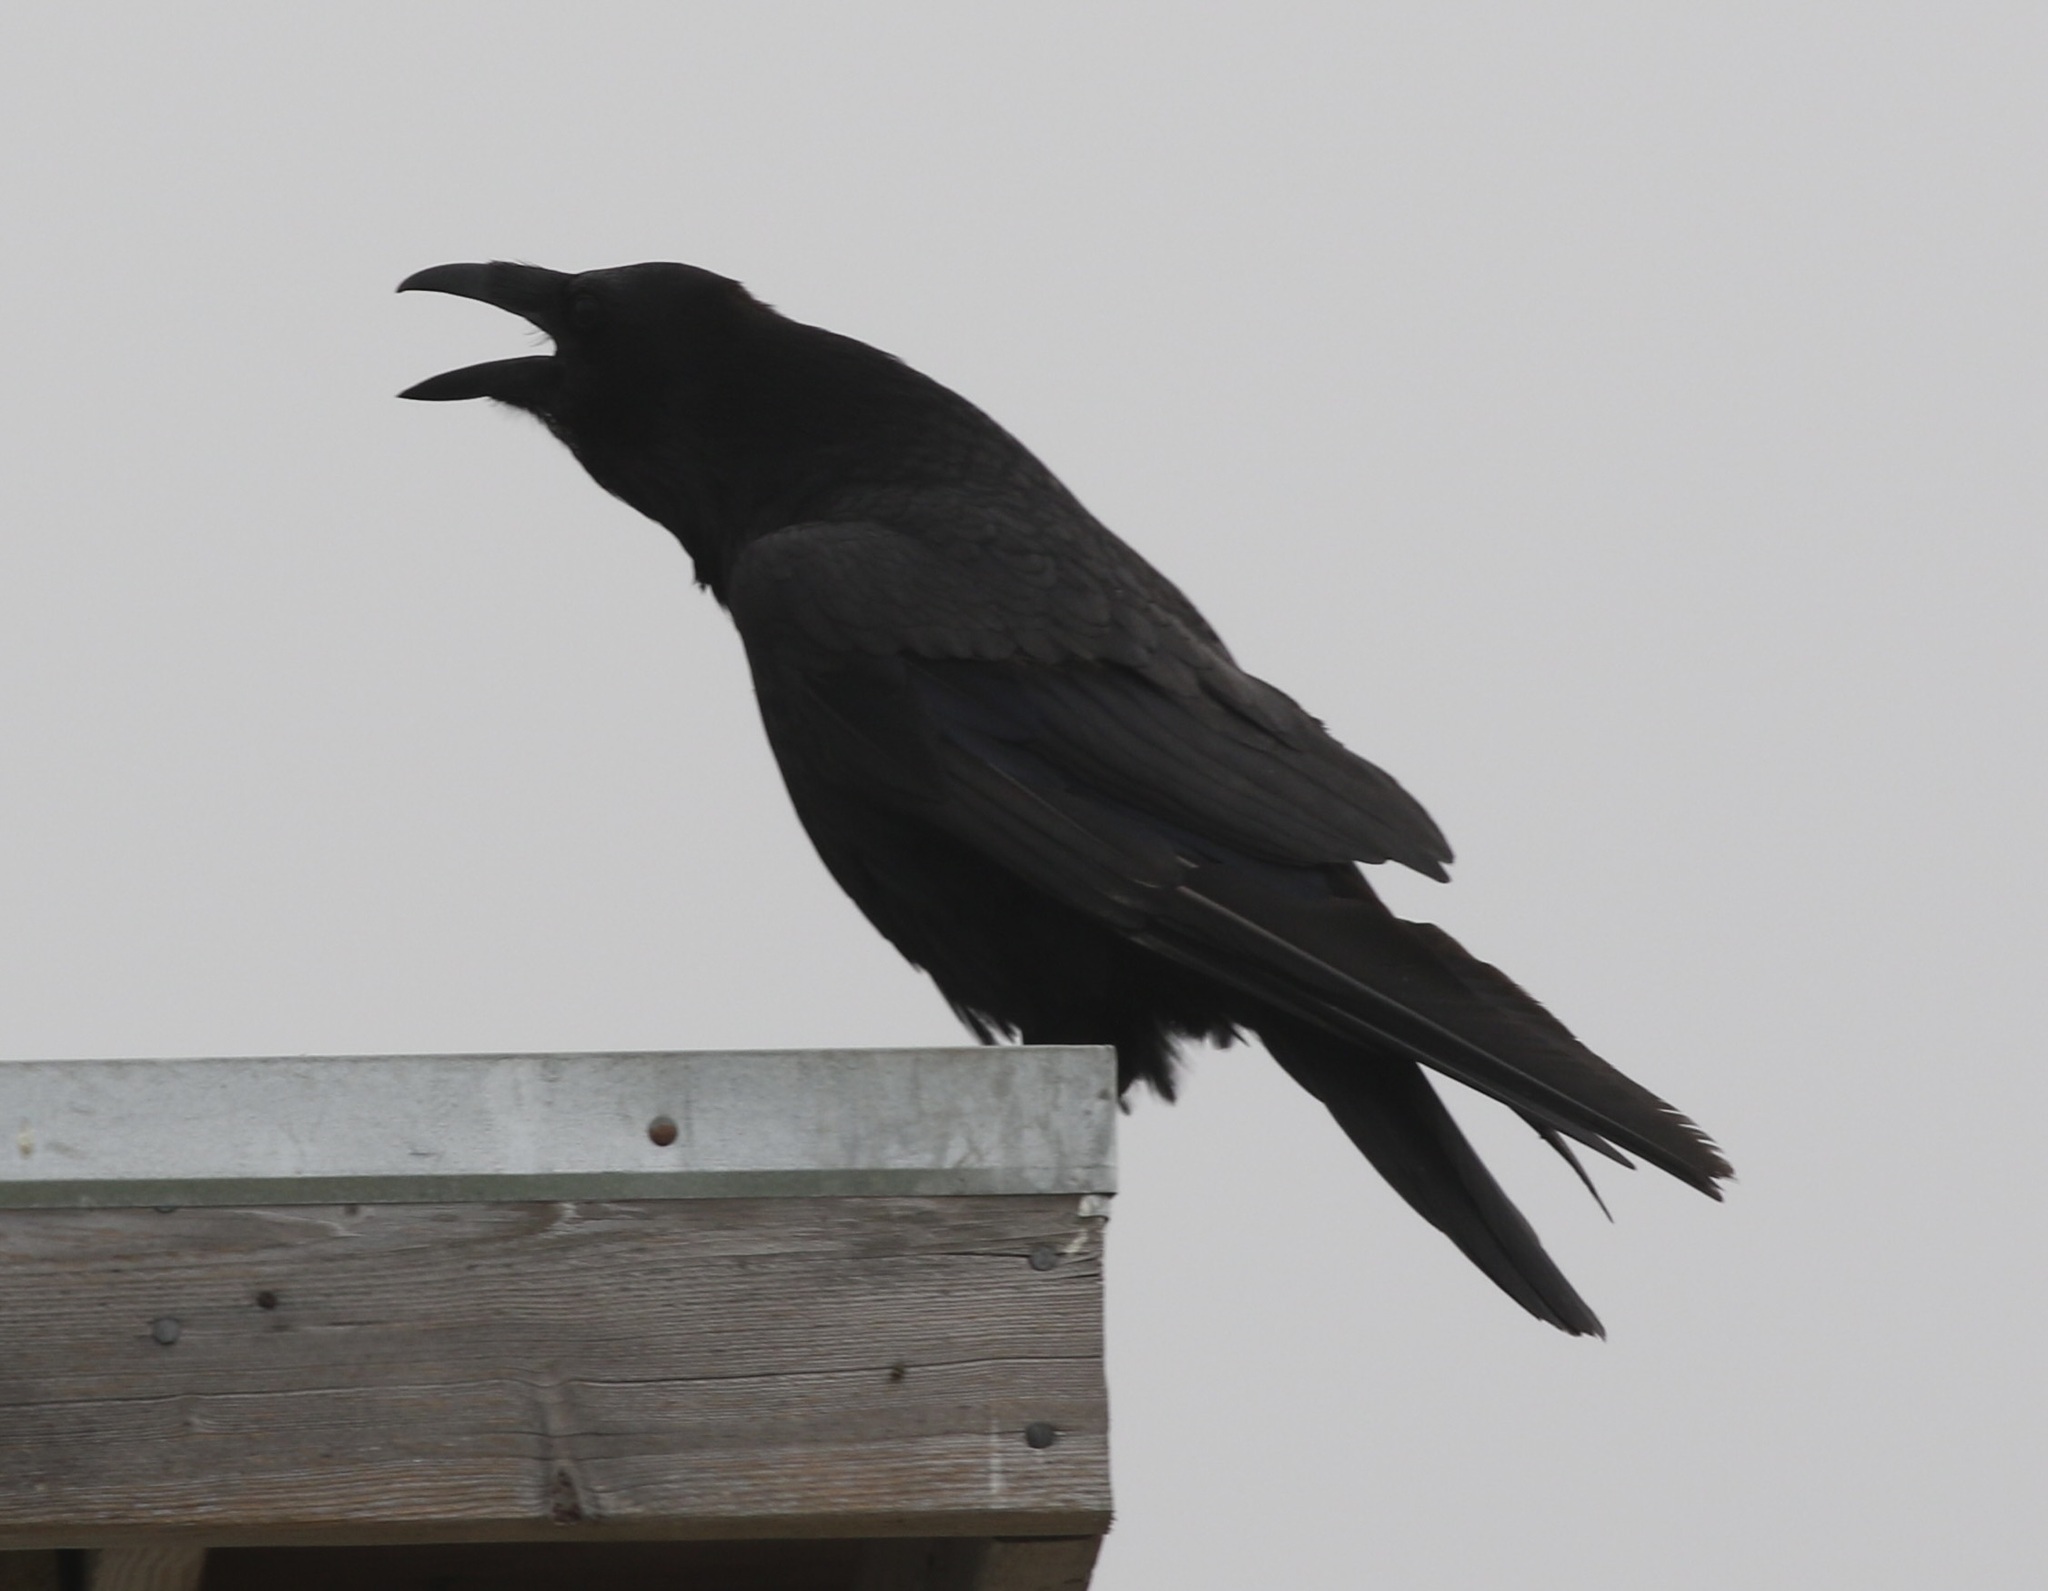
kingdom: Animalia
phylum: Chordata
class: Aves
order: Passeriformes
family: Corvidae
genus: Corvus
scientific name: Corvus corax
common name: Common raven
